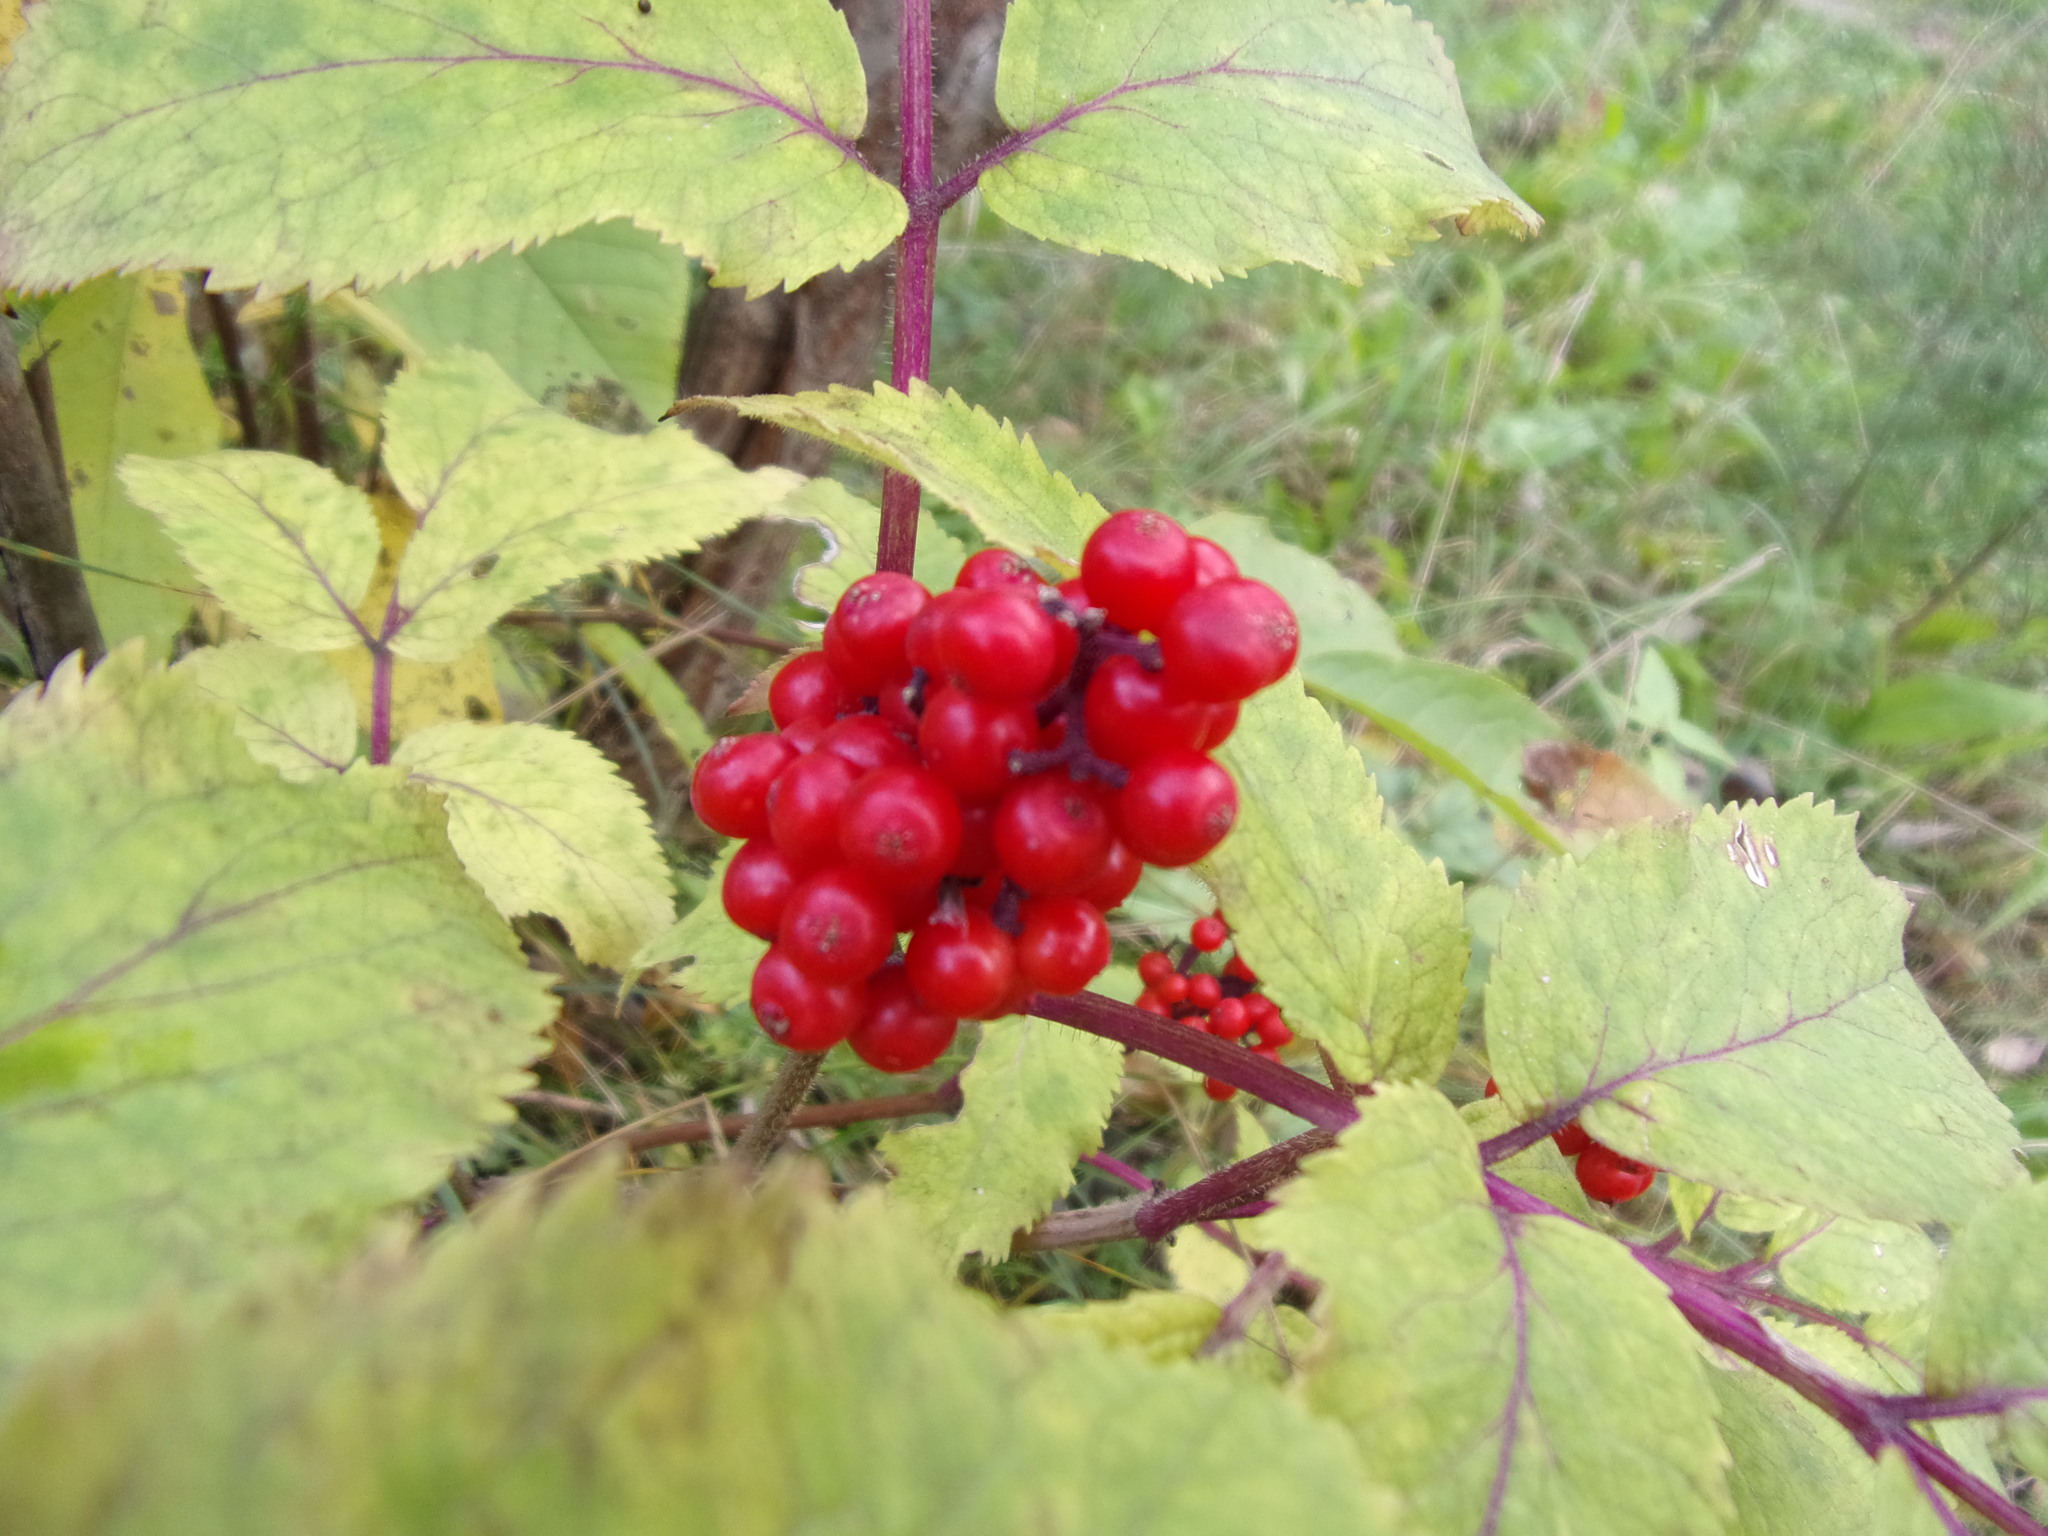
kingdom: Plantae
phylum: Tracheophyta
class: Magnoliopsida
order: Dipsacales
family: Viburnaceae
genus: Sambucus
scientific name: Sambucus sibirica
